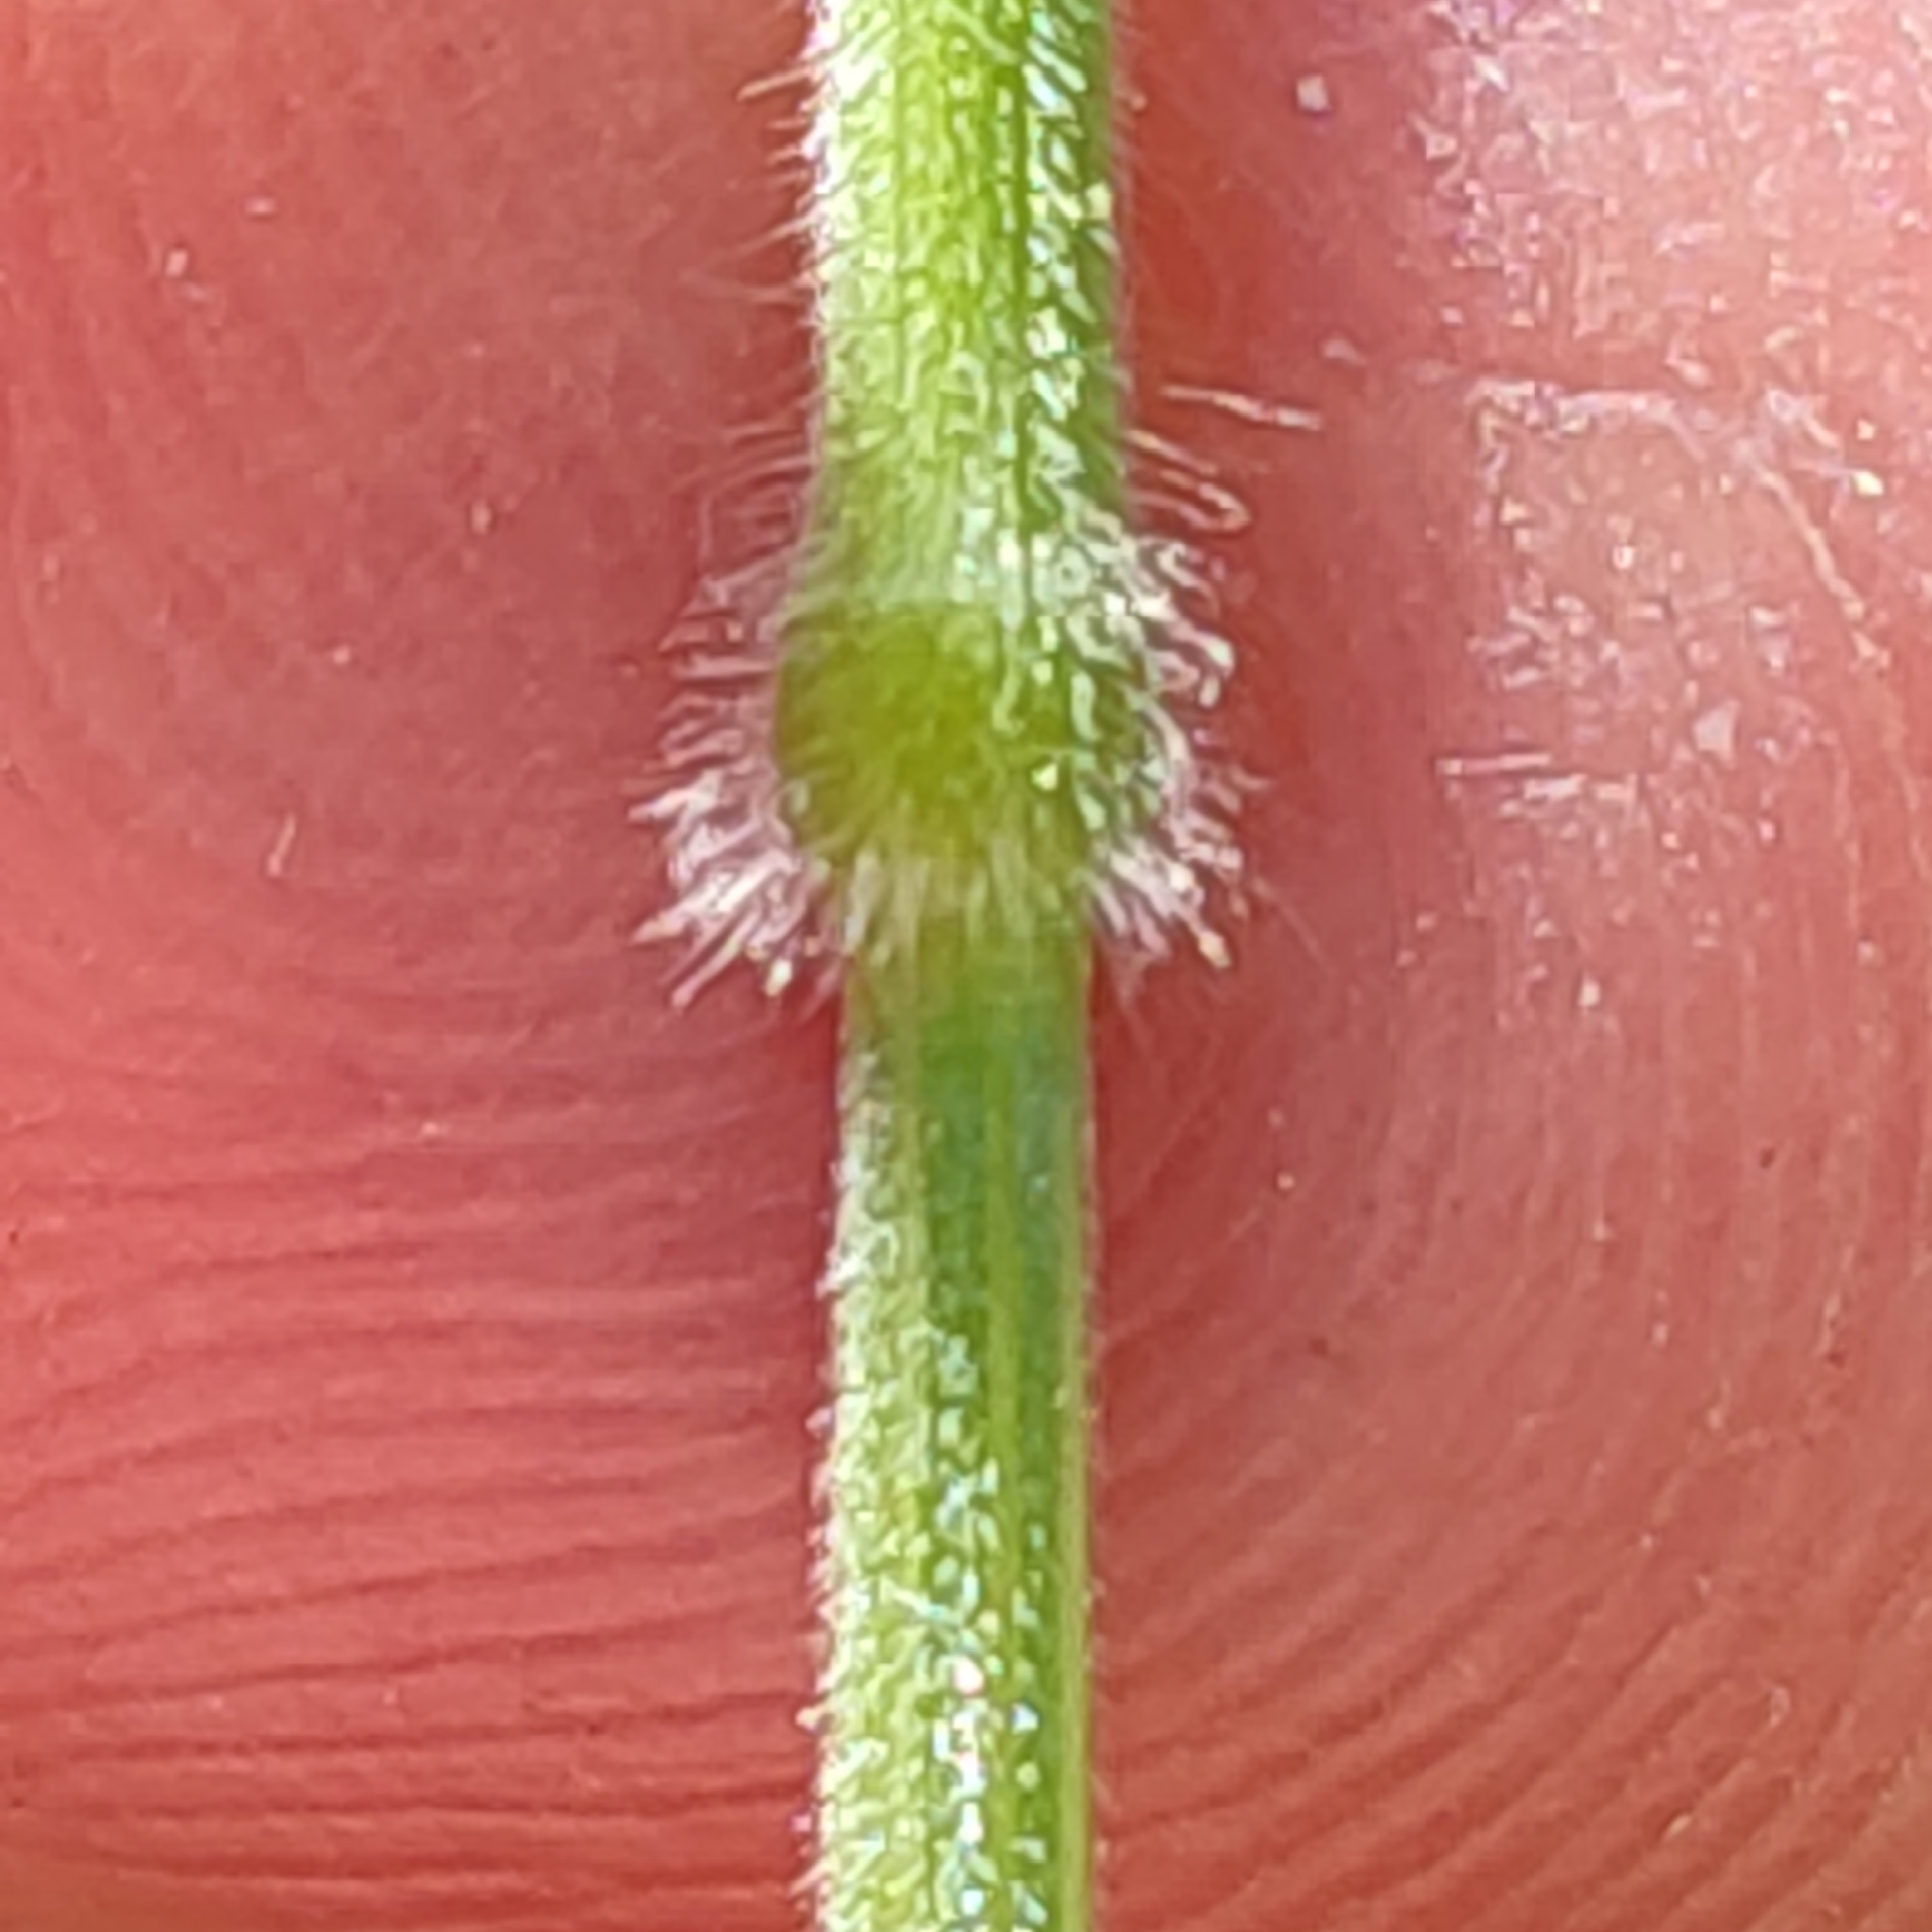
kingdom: Plantae
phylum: Tracheophyta
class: Liliopsida
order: Poales
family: Poaceae
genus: Holcus
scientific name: Holcus lanatus
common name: Yorkshire-fog
